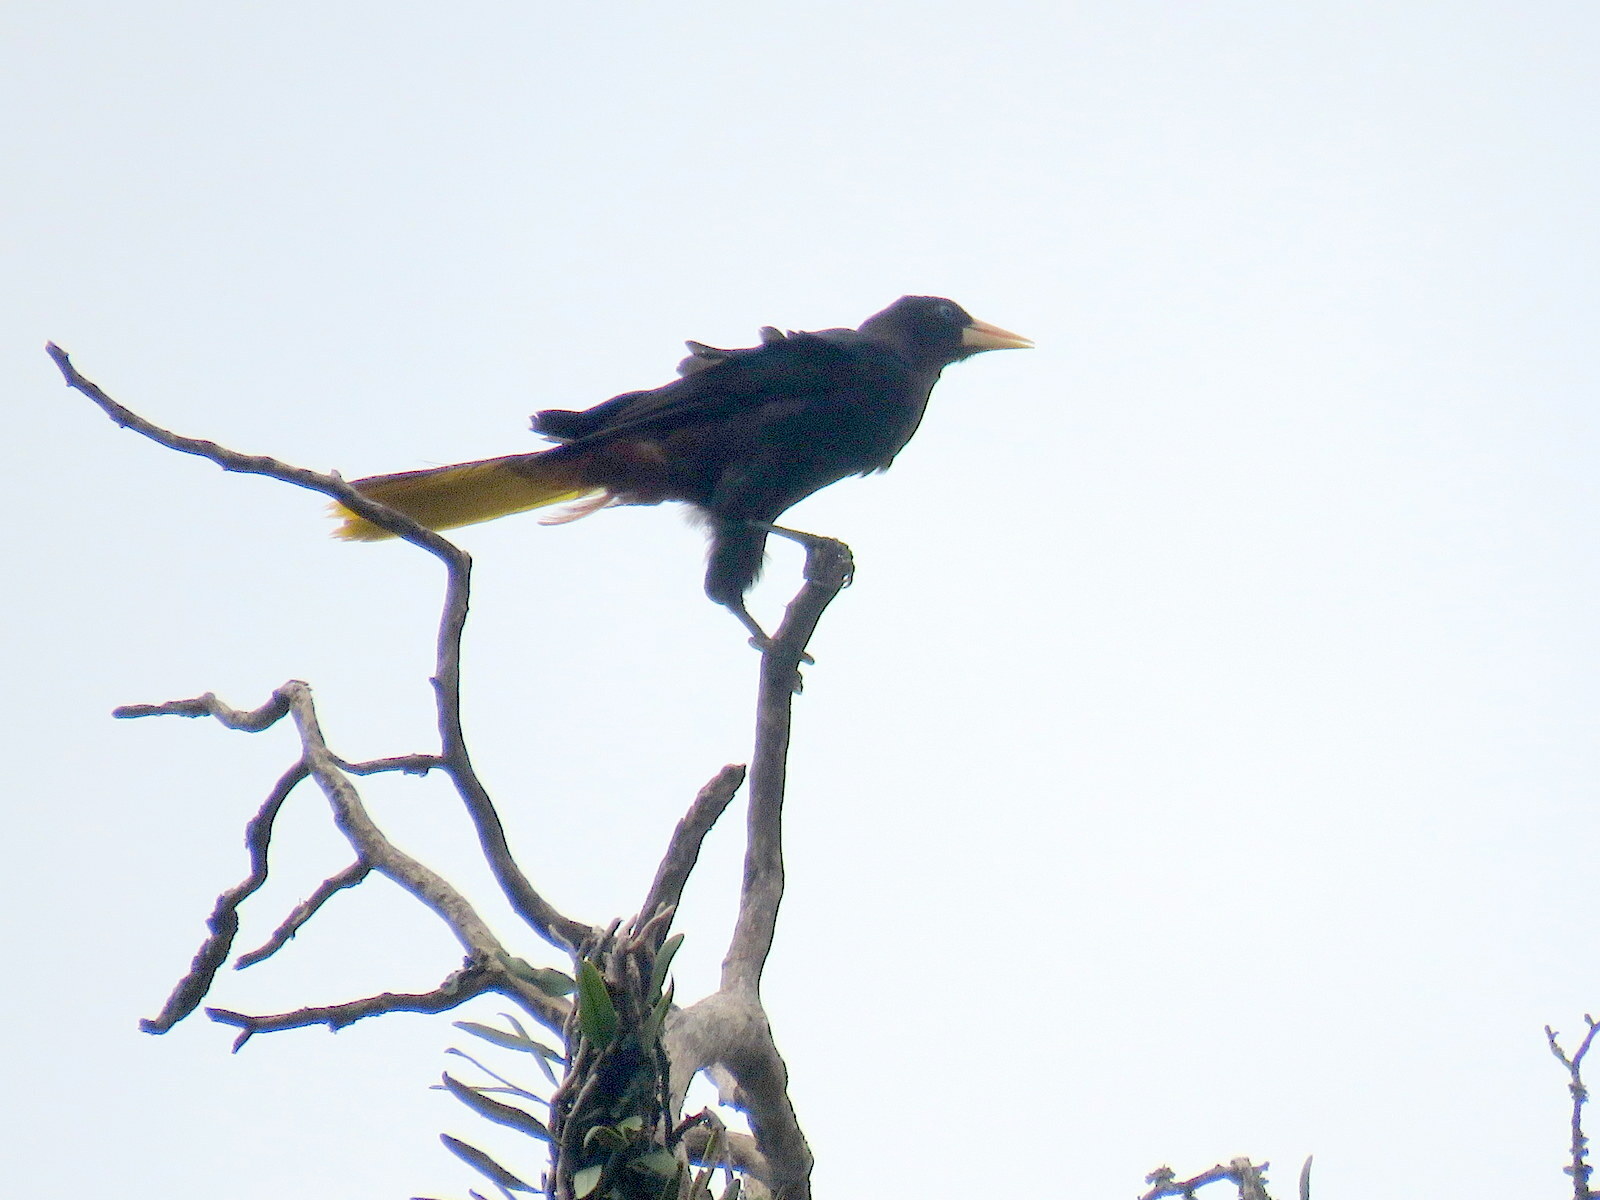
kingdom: Animalia
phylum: Chordata
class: Aves
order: Passeriformes
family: Icteridae
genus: Psarocolius
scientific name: Psarocolius decumanus
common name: Crested oropendola
